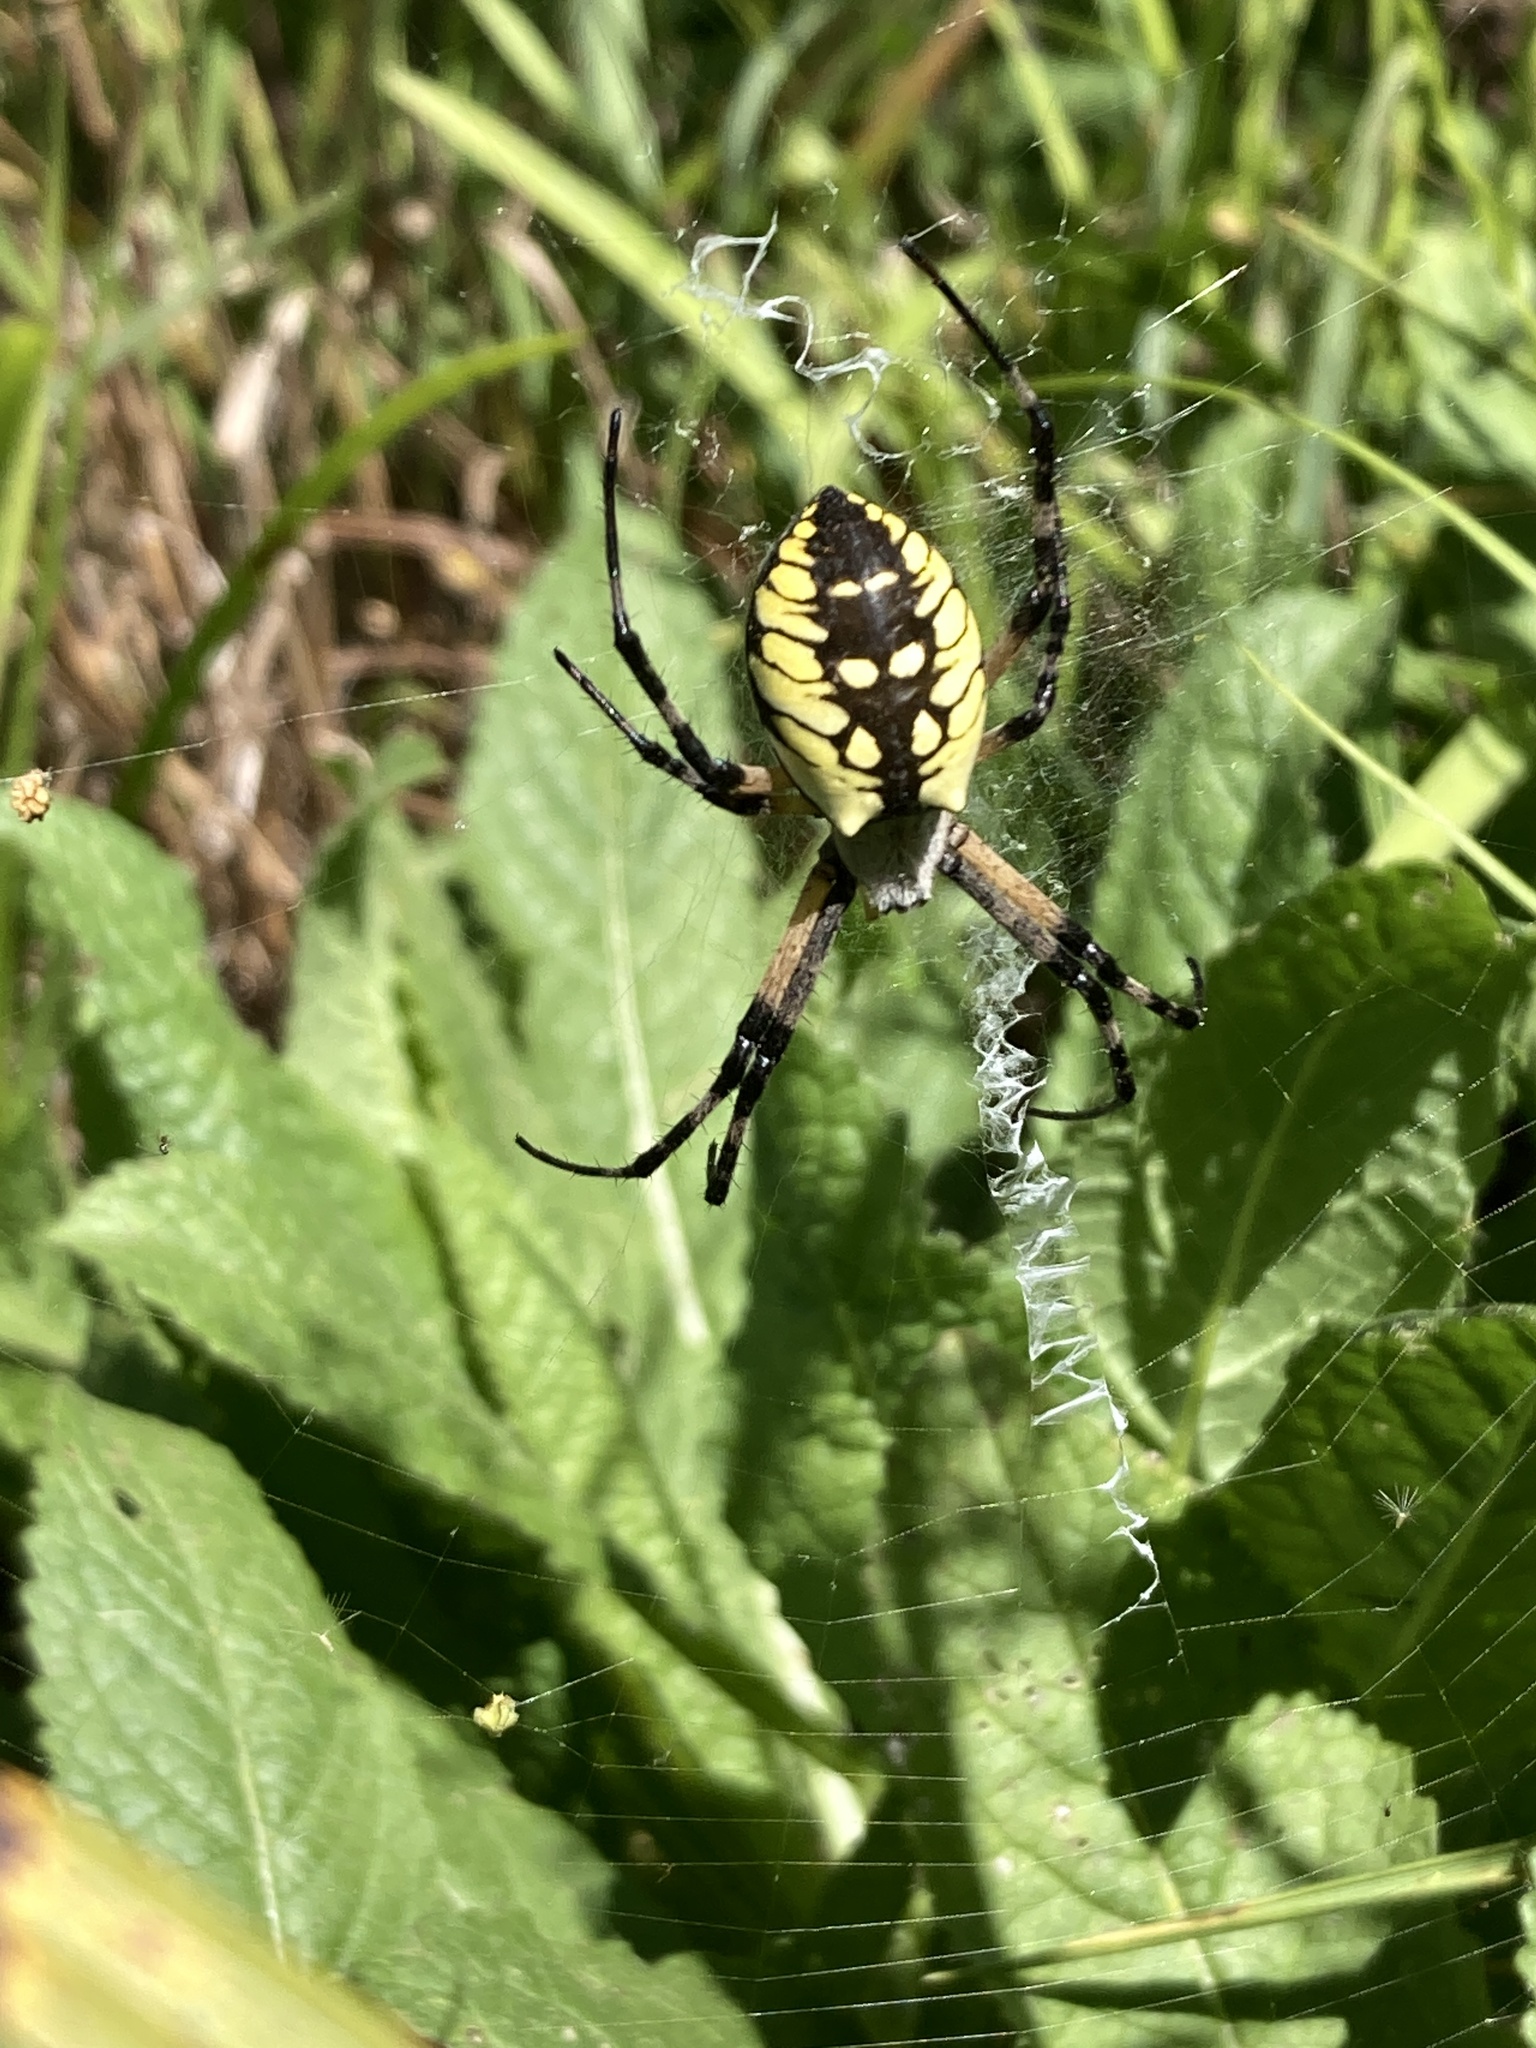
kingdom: Animalia
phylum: Arthropoda
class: Arachnida
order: Araneae
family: Araneidae
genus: Argiope
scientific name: Argiope aurantia
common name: Orb weavers
